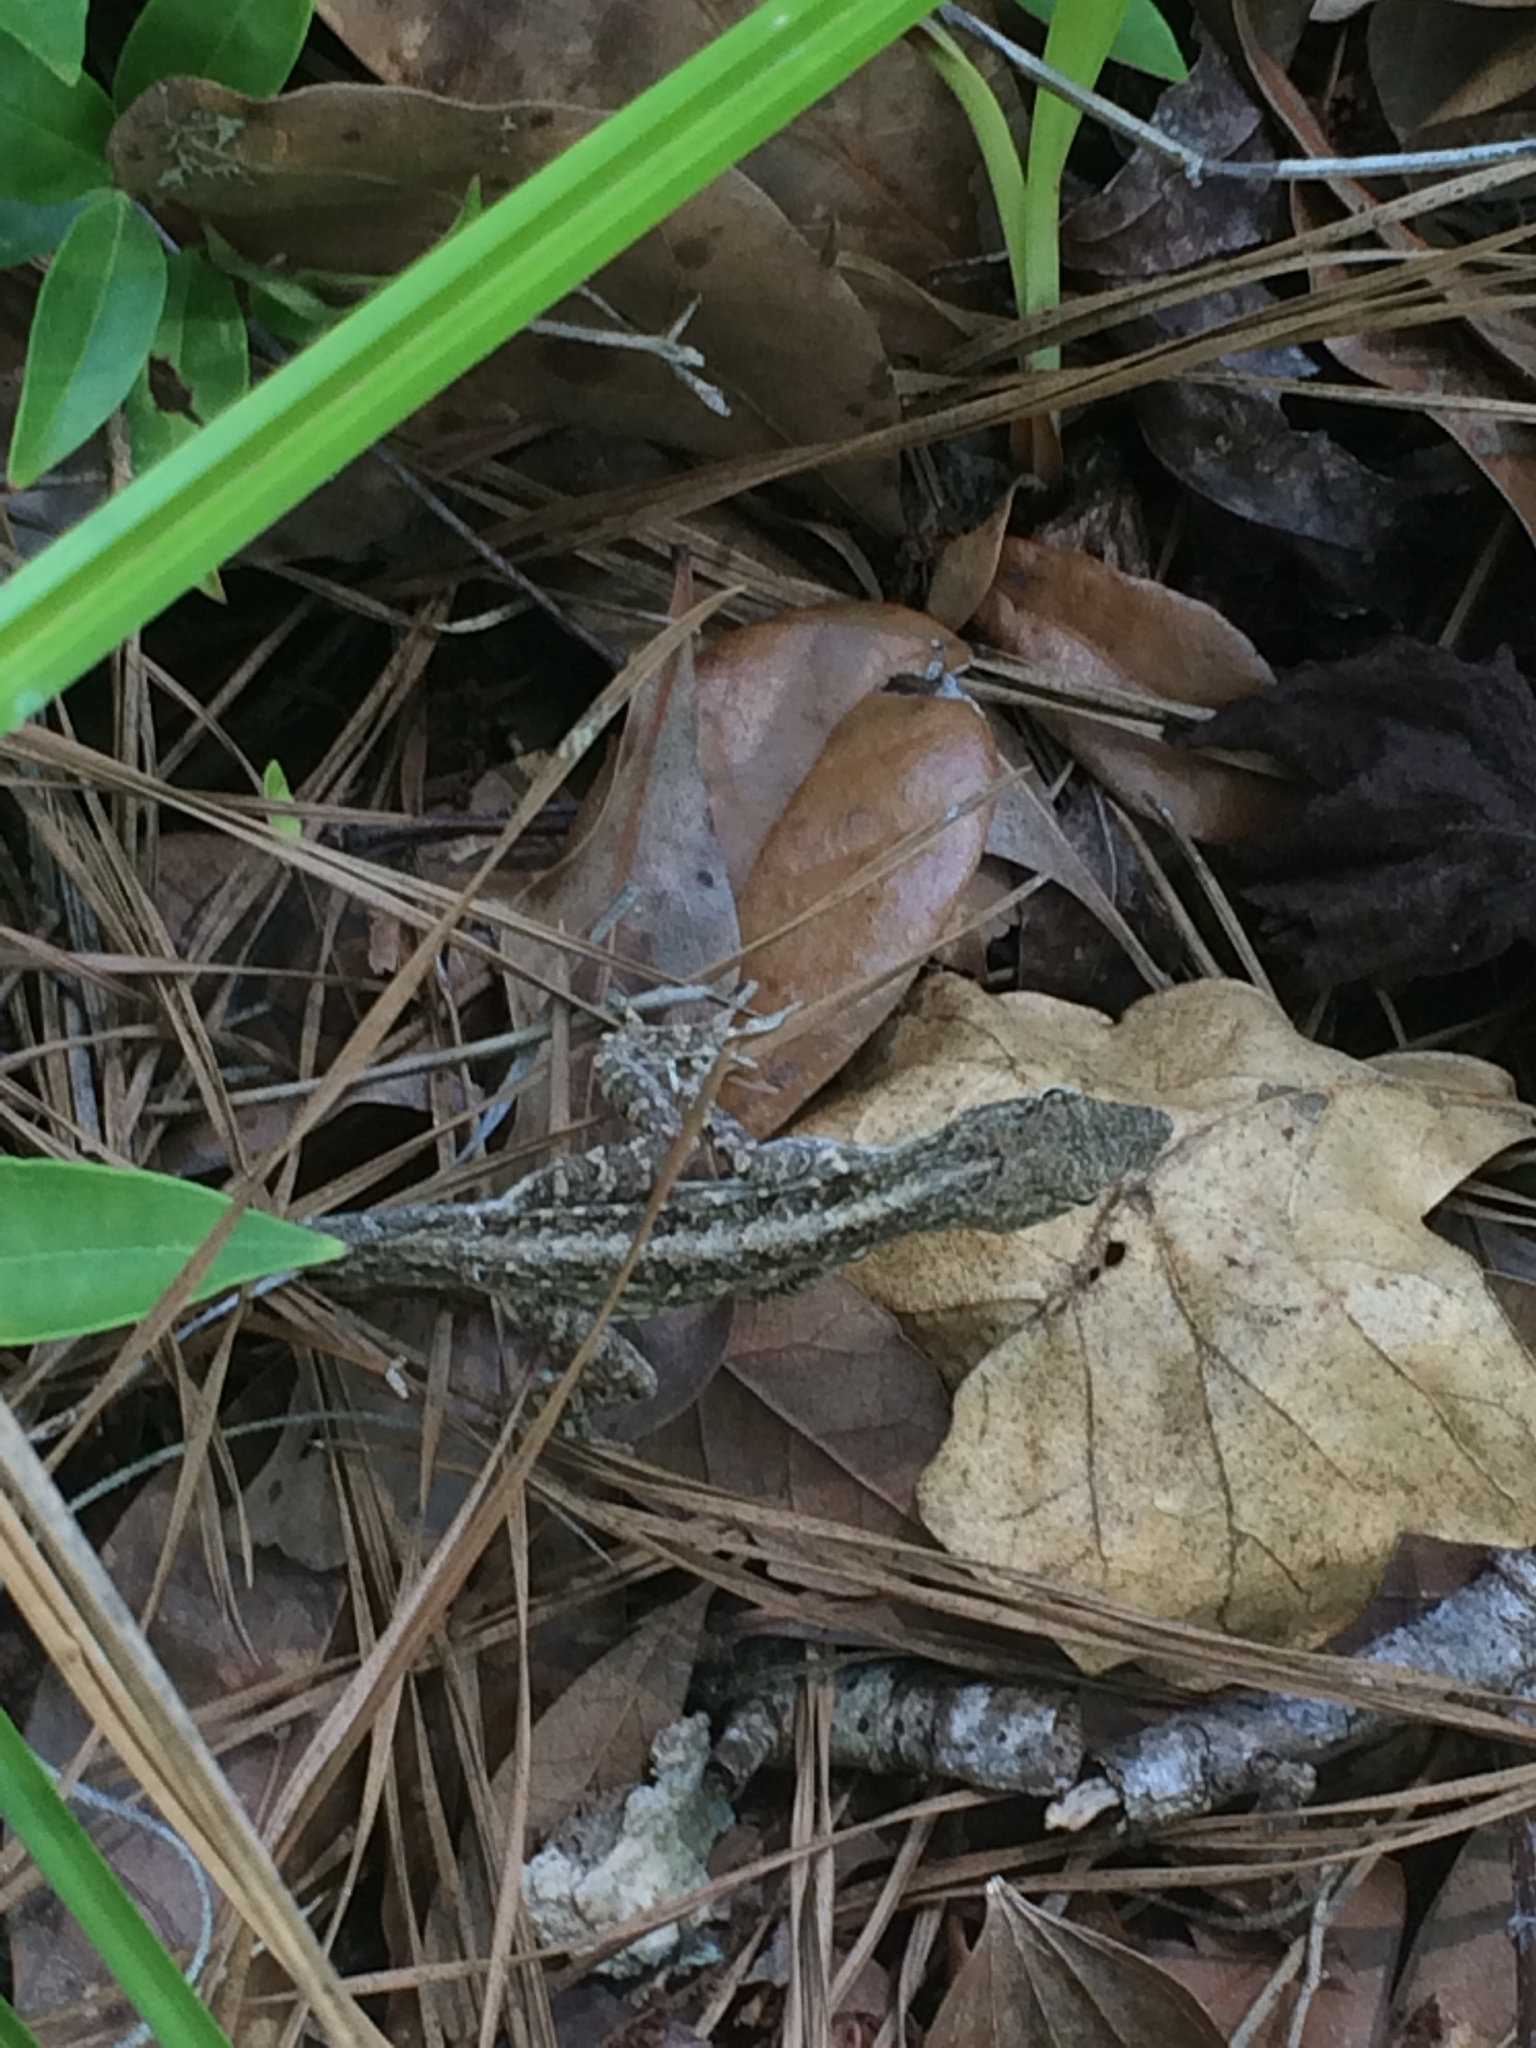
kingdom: Animalia
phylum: Chordata
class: Squamata
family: Dactyloidae
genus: Anolis
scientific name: Anolis sagrei
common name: Brown anole
